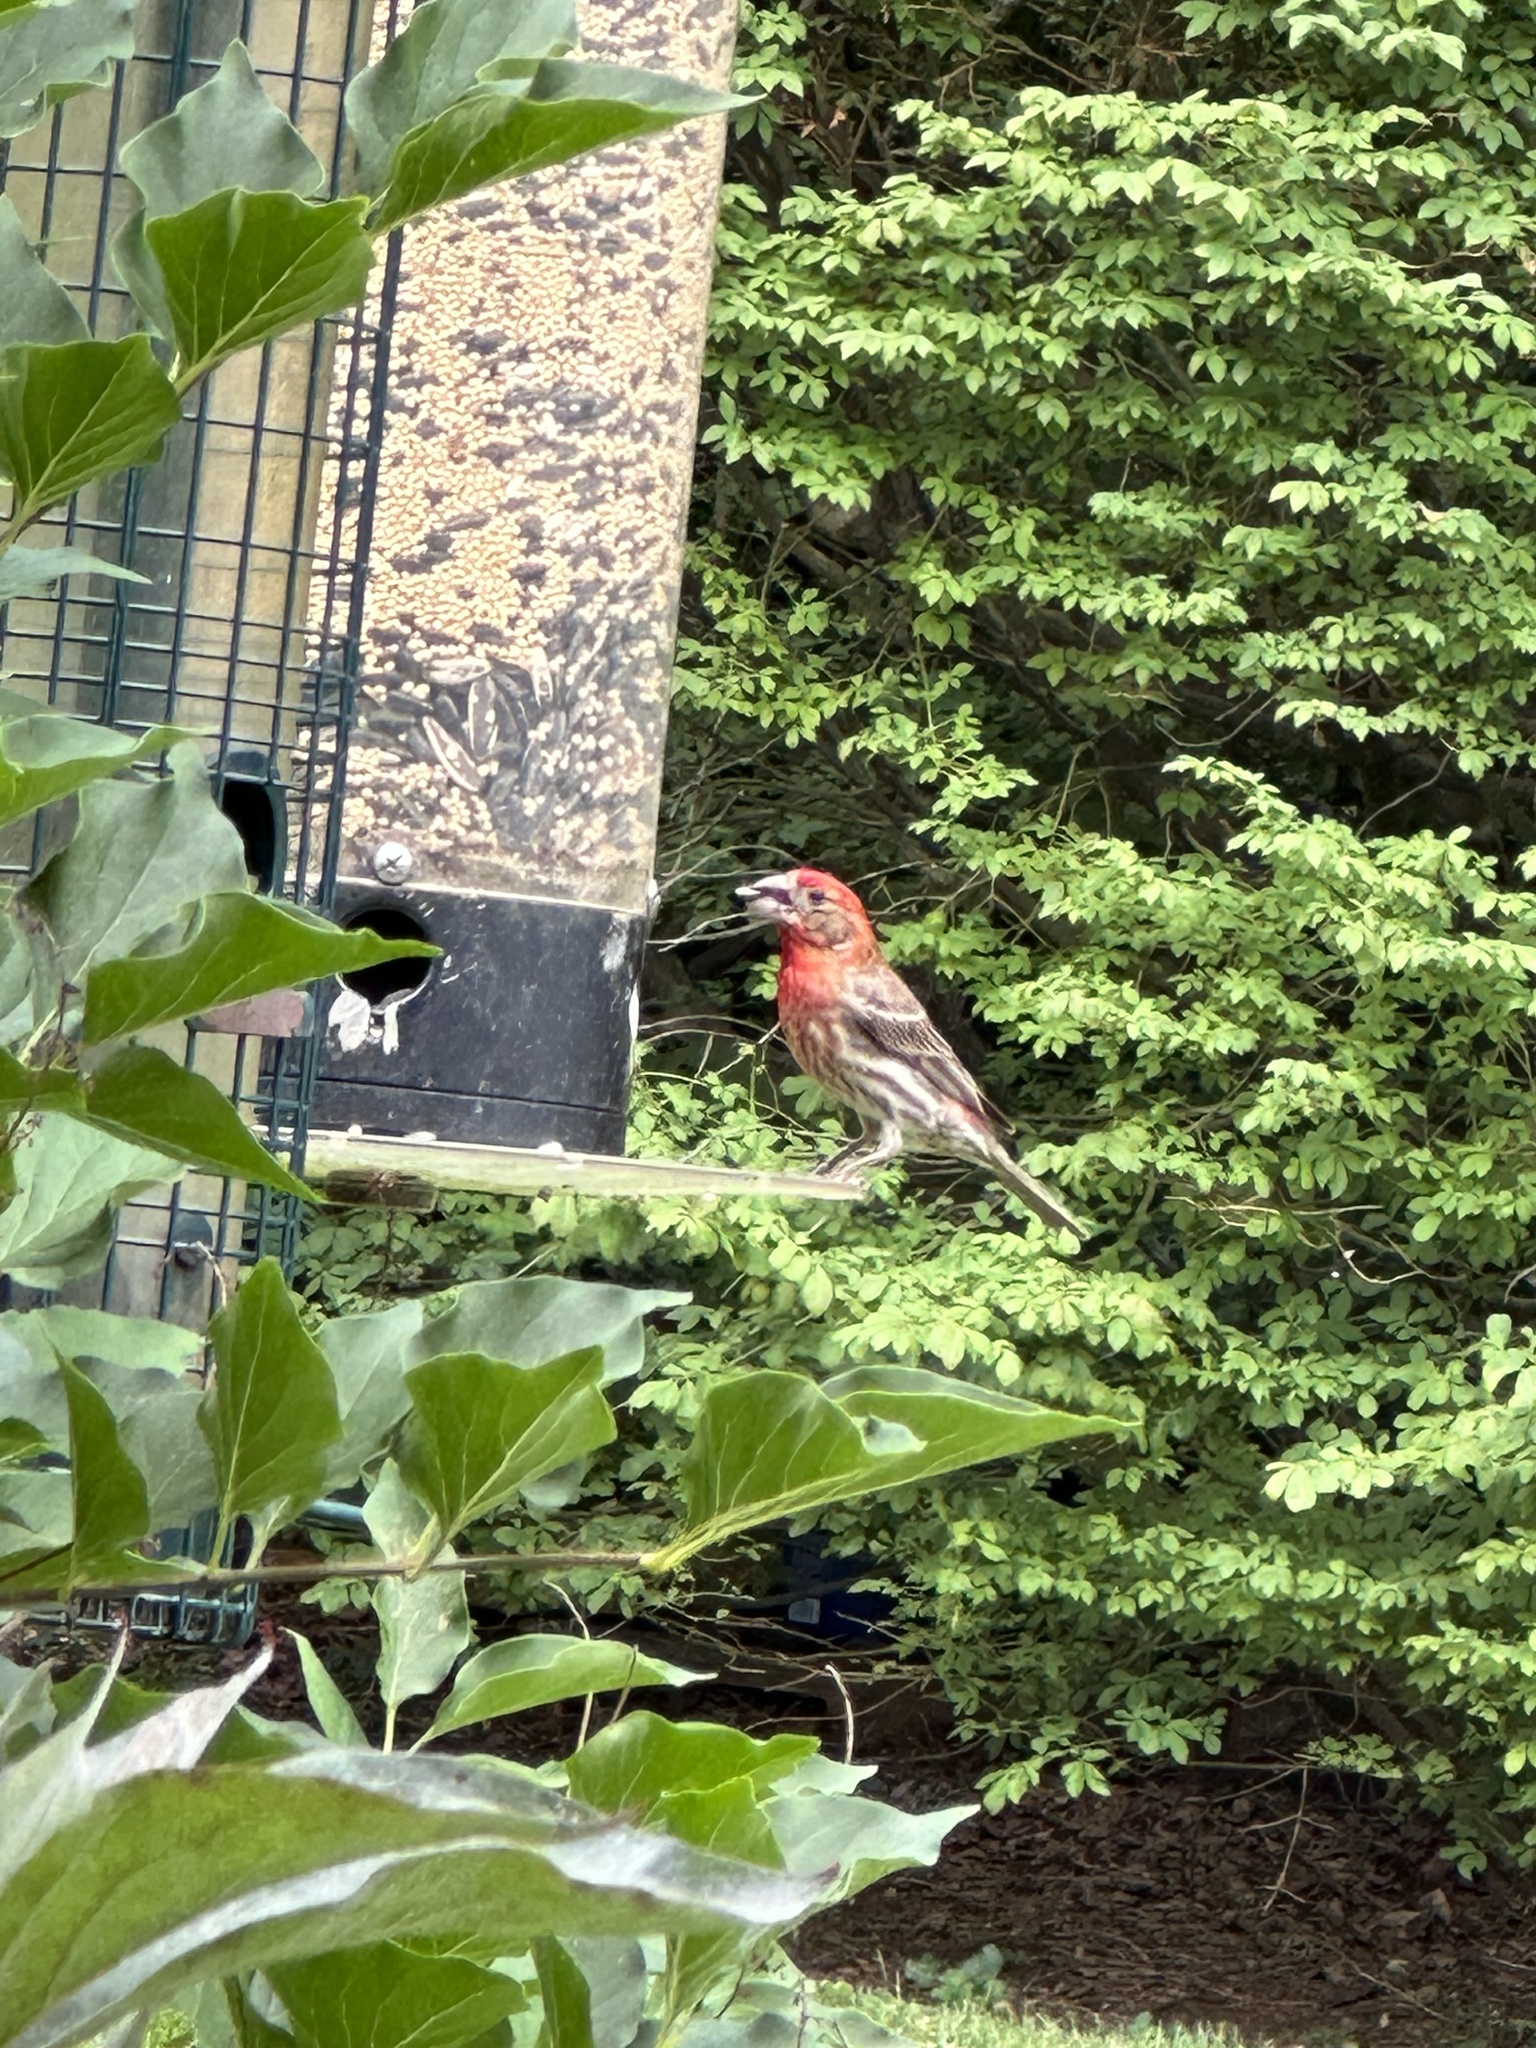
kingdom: Animalia
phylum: Chordata
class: Aves
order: Passeriformes
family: Fringillidae
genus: Haemorhous
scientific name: Haemorhous mexicanus
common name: House finch
